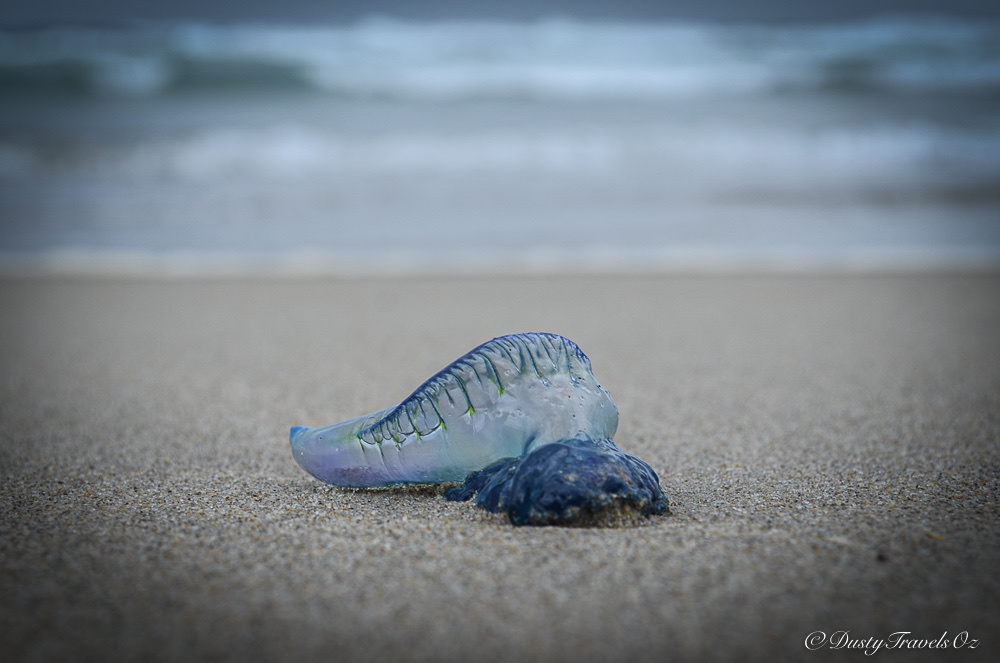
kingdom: Animalia
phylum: Cnidaria
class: Hydrozoa
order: Siphonophorae
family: Physaliidae
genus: Physalia
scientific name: Physalia physalis
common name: Portuguese man-of-war
